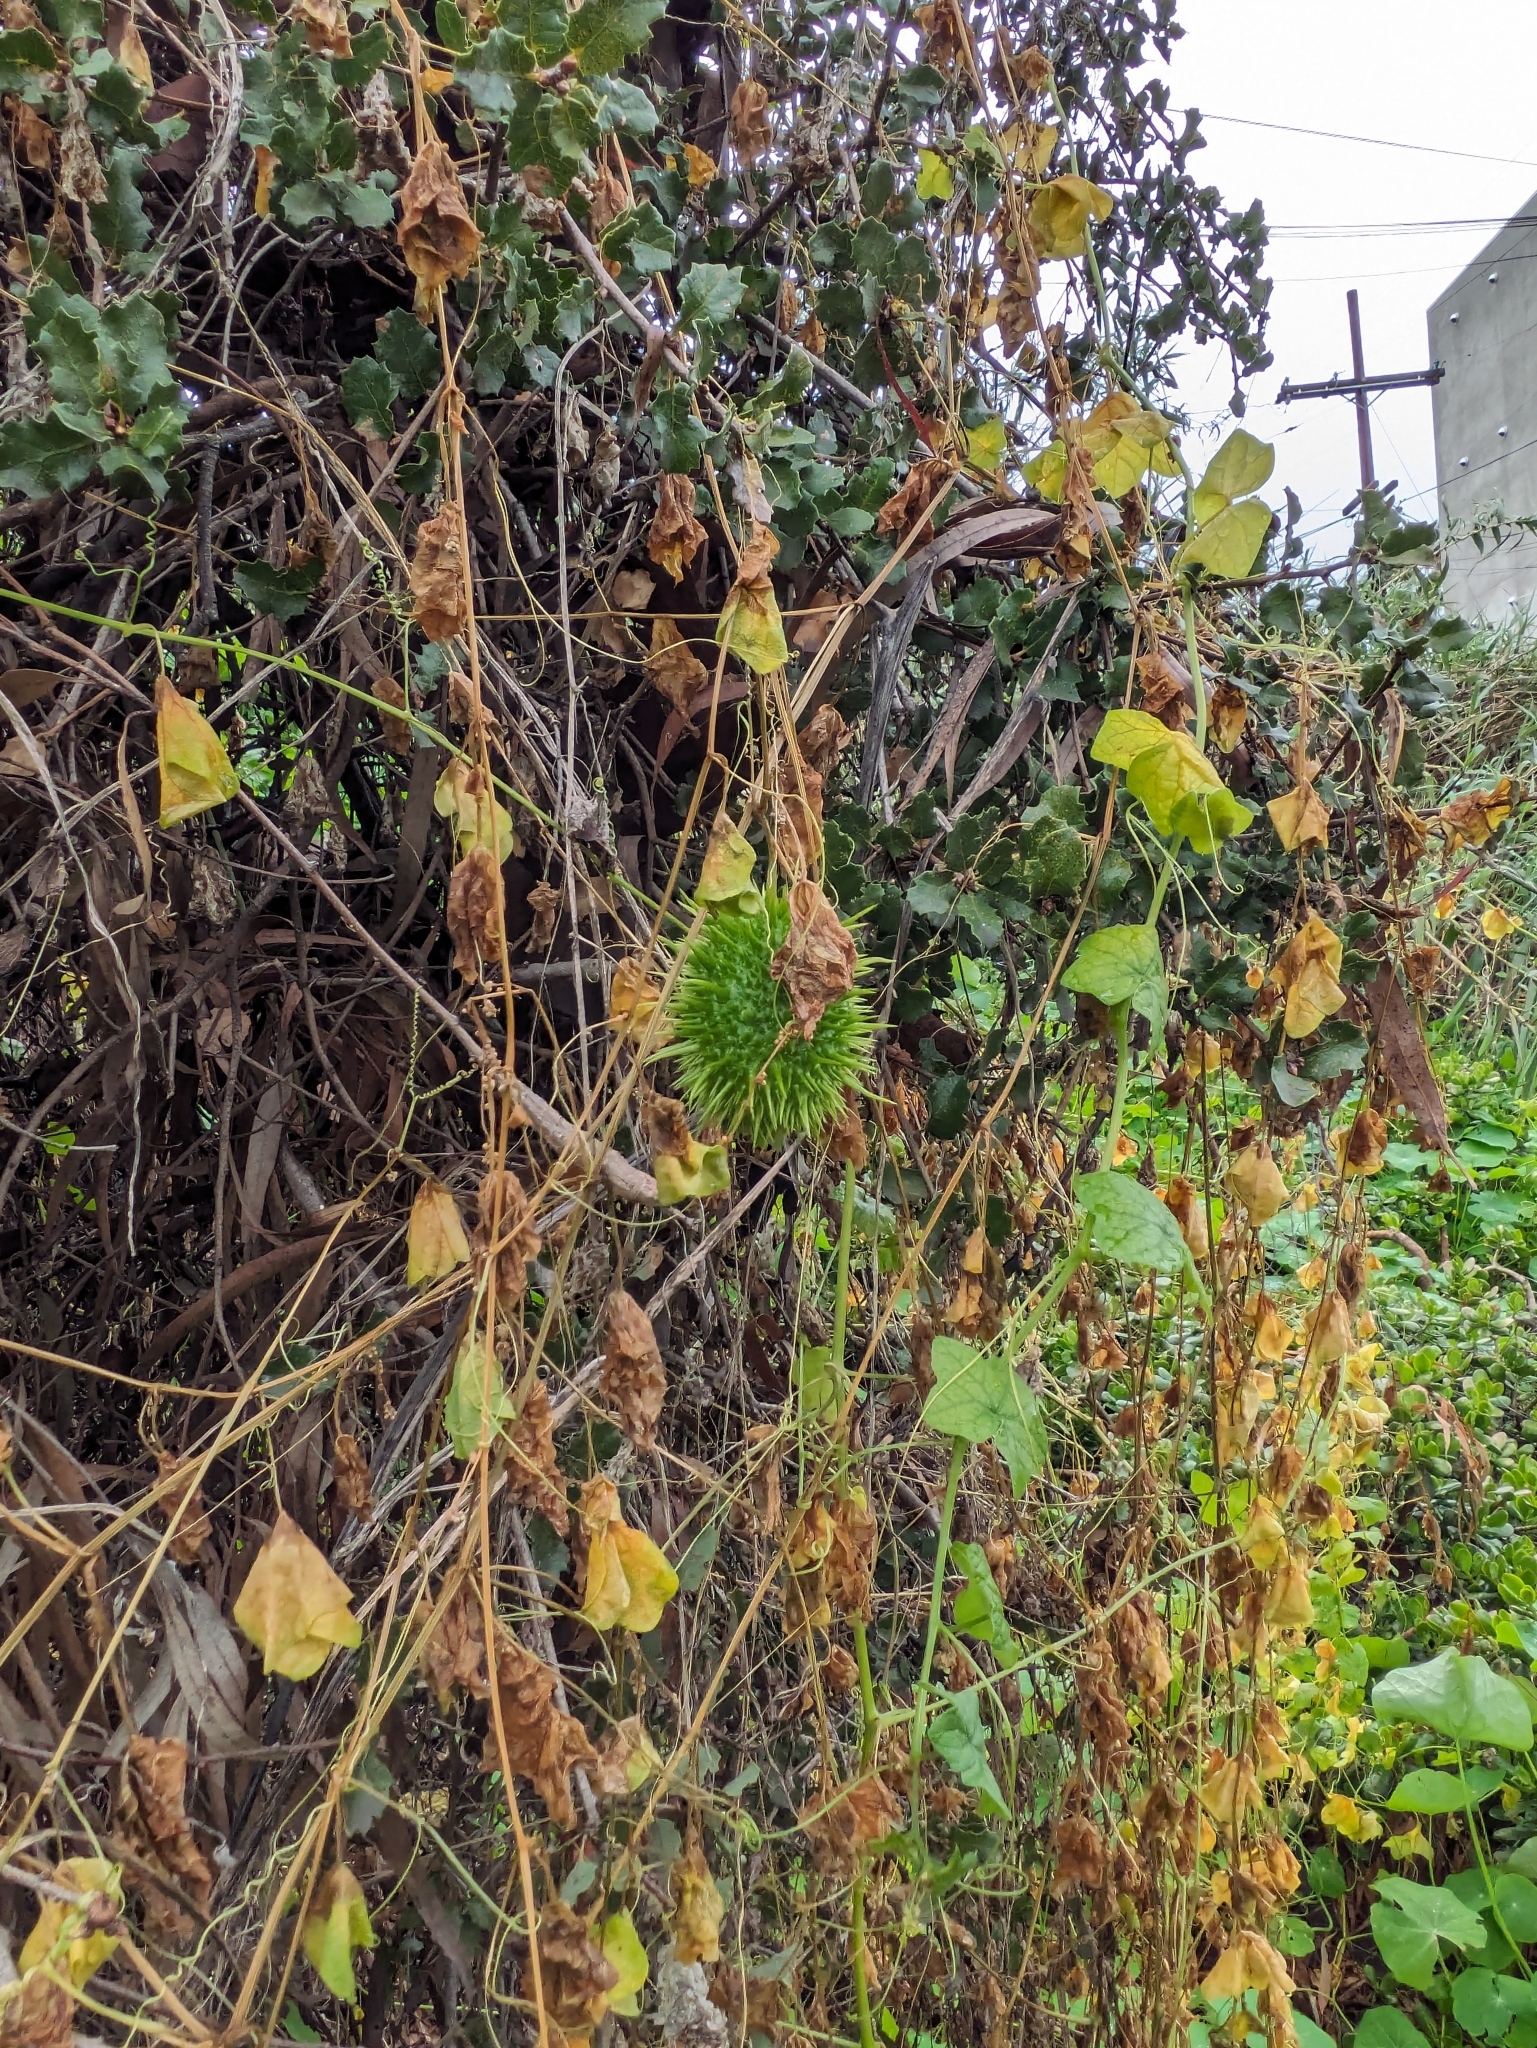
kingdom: Plantae
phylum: Tracheophyta
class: Magnoliopsida
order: Cucurbitales
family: Cucurbitaceae
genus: Marah
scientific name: Marah macrocarpa
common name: Cucamonga manroot
